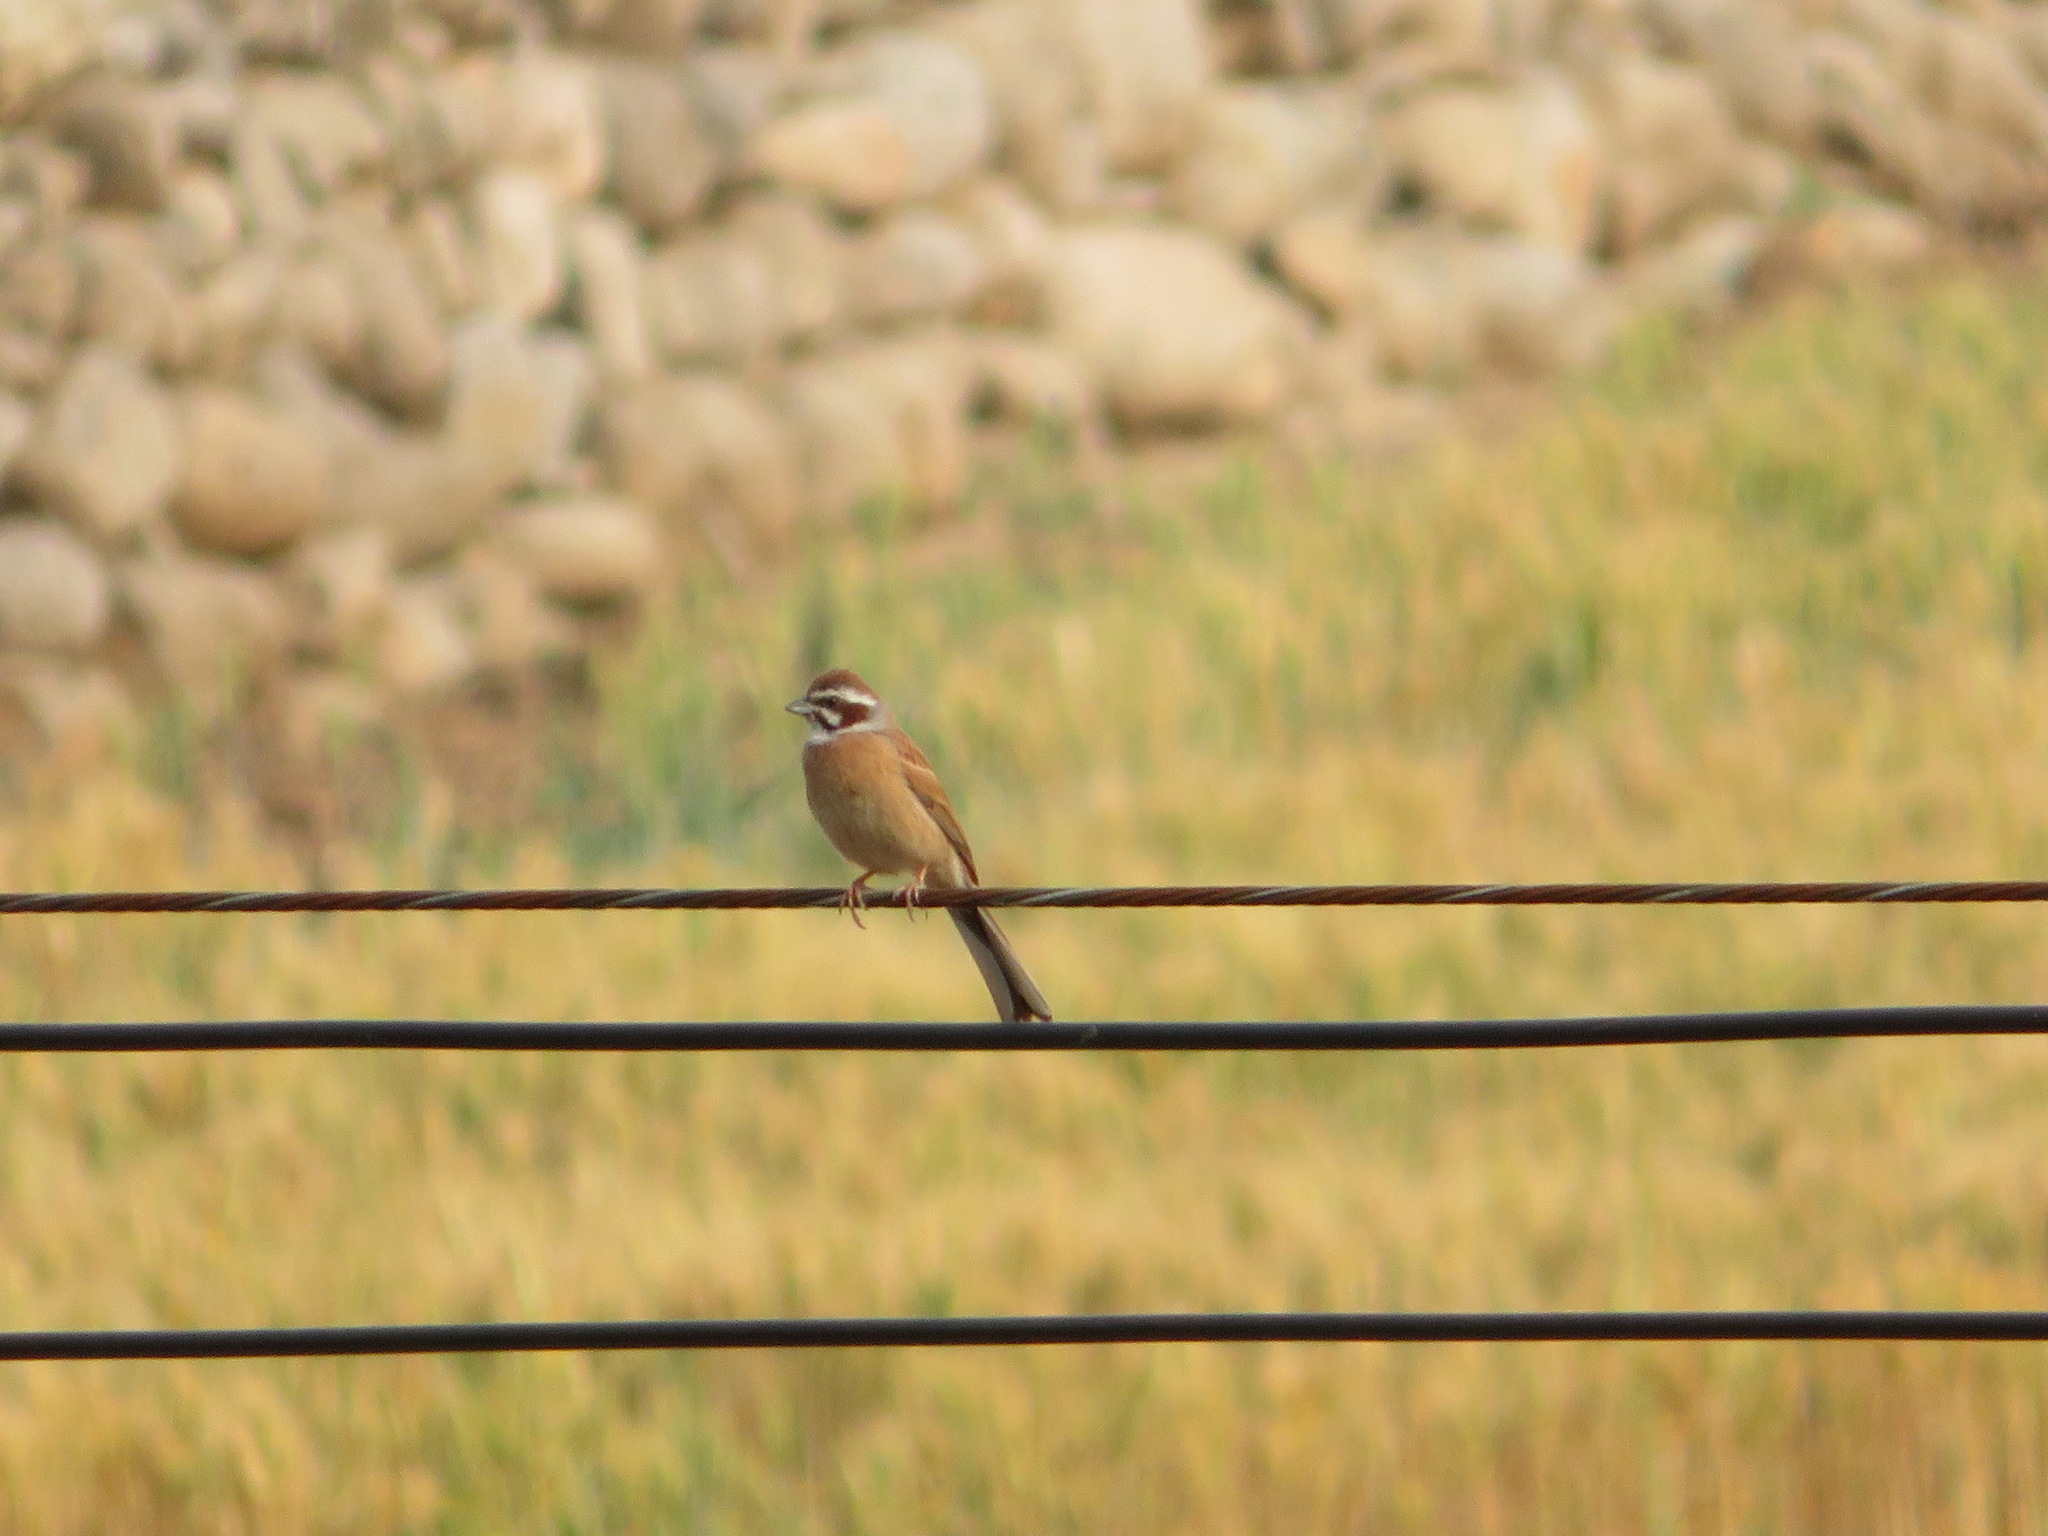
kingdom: Animalia
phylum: Chordata
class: Aves
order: Passeriformes
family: Emberizidae
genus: Emberiza
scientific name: Emberiza cioides
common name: Meadow bunting
